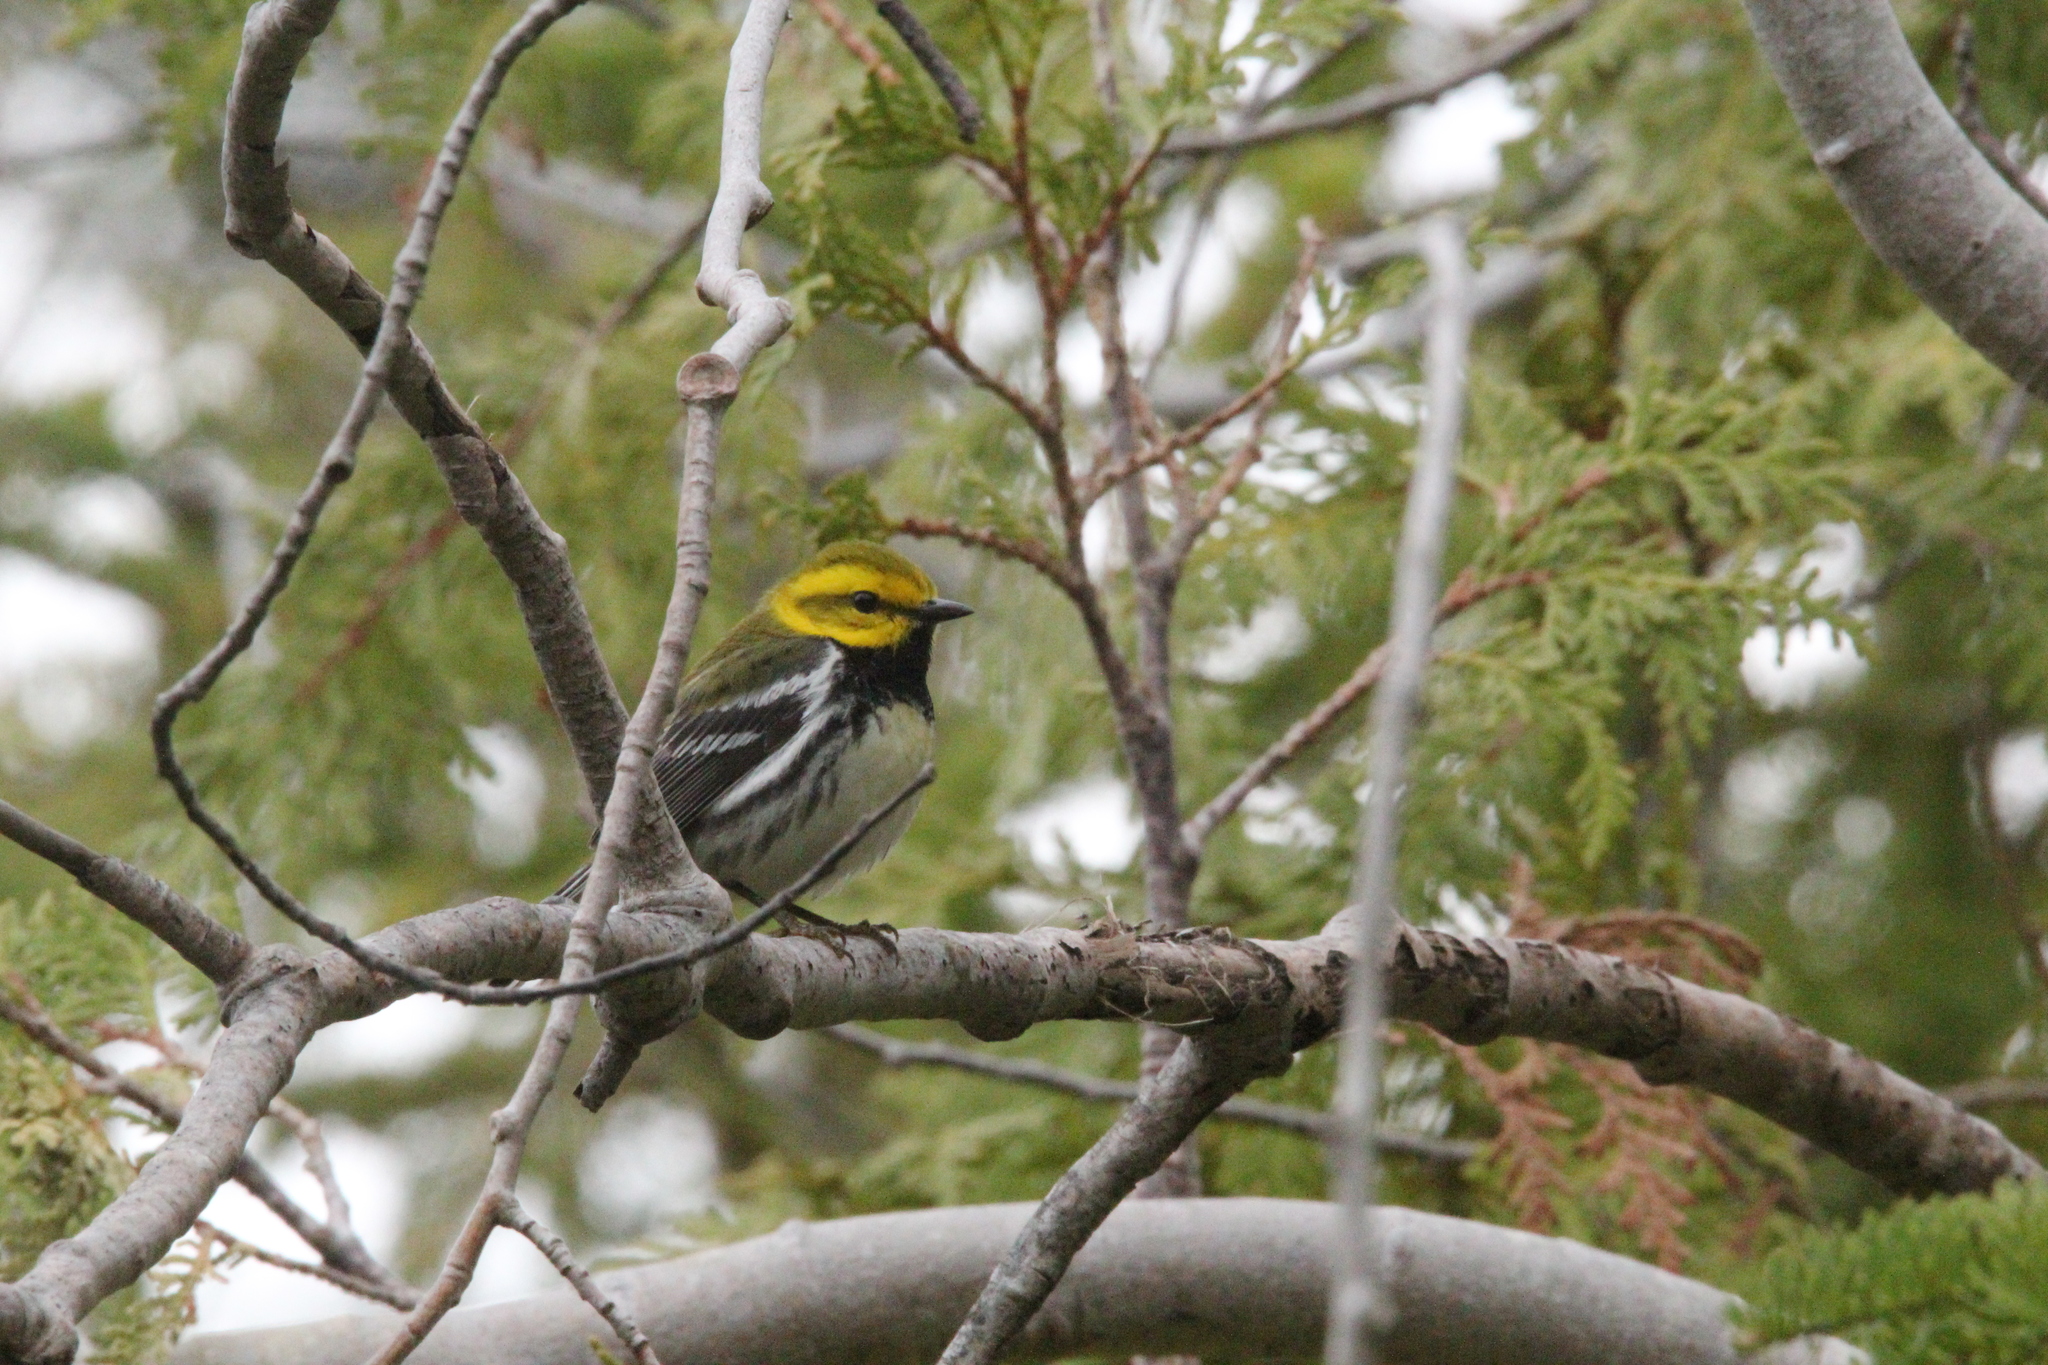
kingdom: Animalia
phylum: Chordata
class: Aves
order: Passeriformes
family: Parulidae
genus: Setophaga
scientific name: Setophaga virens
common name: Black-throated green warbler
